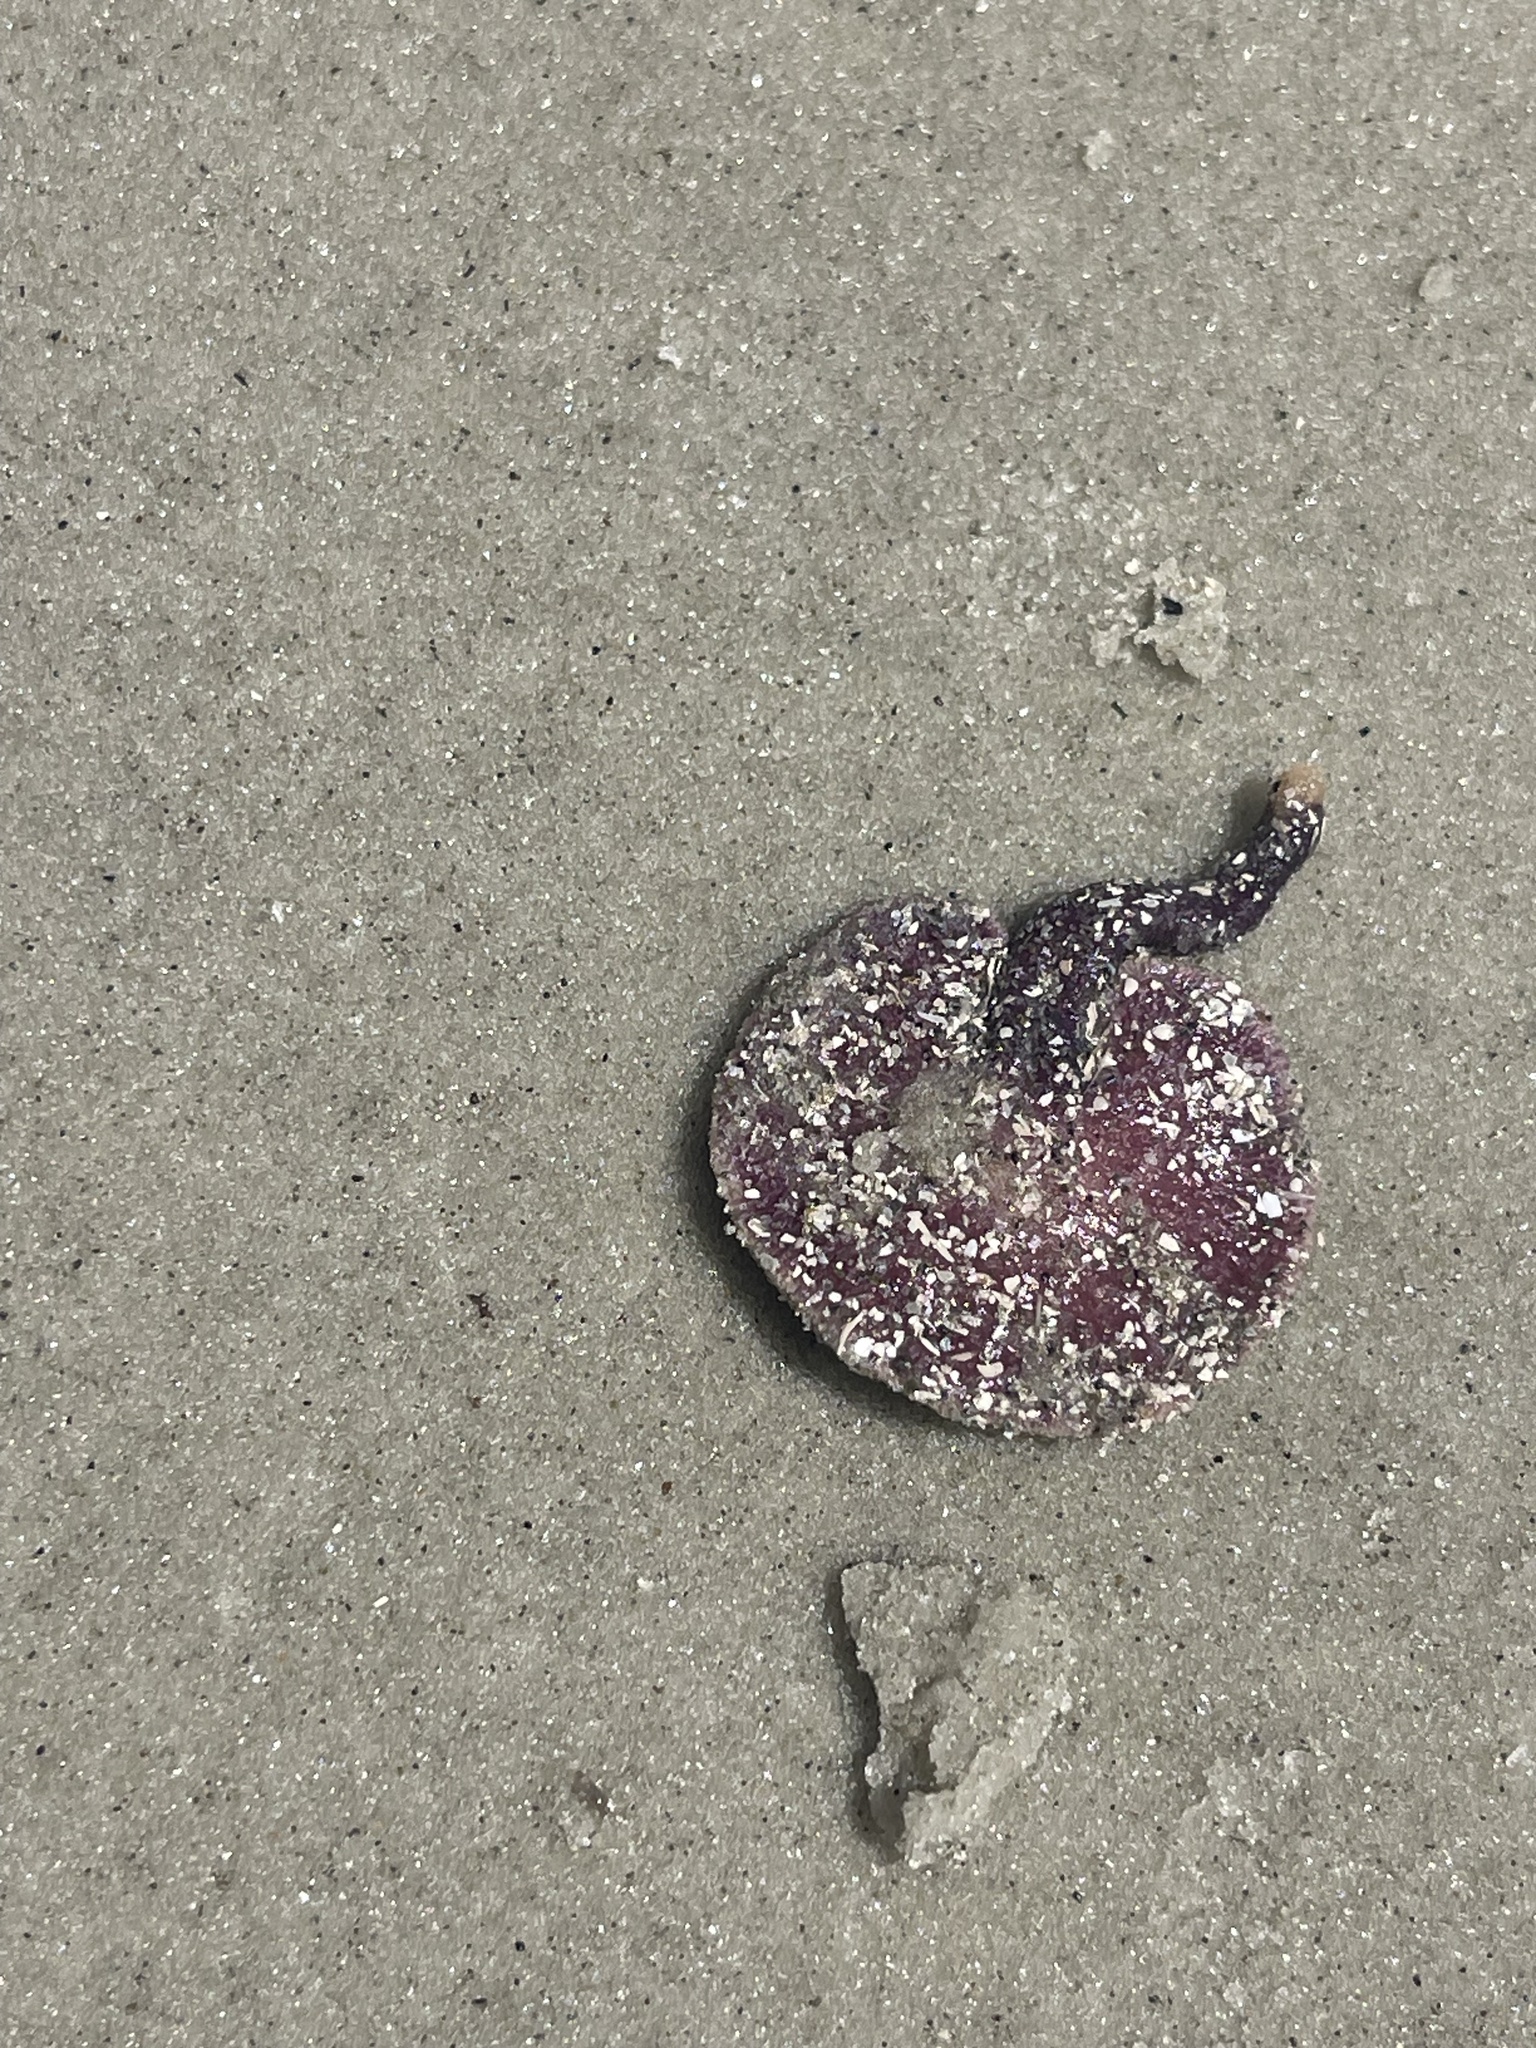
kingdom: Animalia
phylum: Cnidaria
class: Anthozoa
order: Scleralcyonacea
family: Renillidae
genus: Renilla
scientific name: Renilla reniformis
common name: Sea pansy
